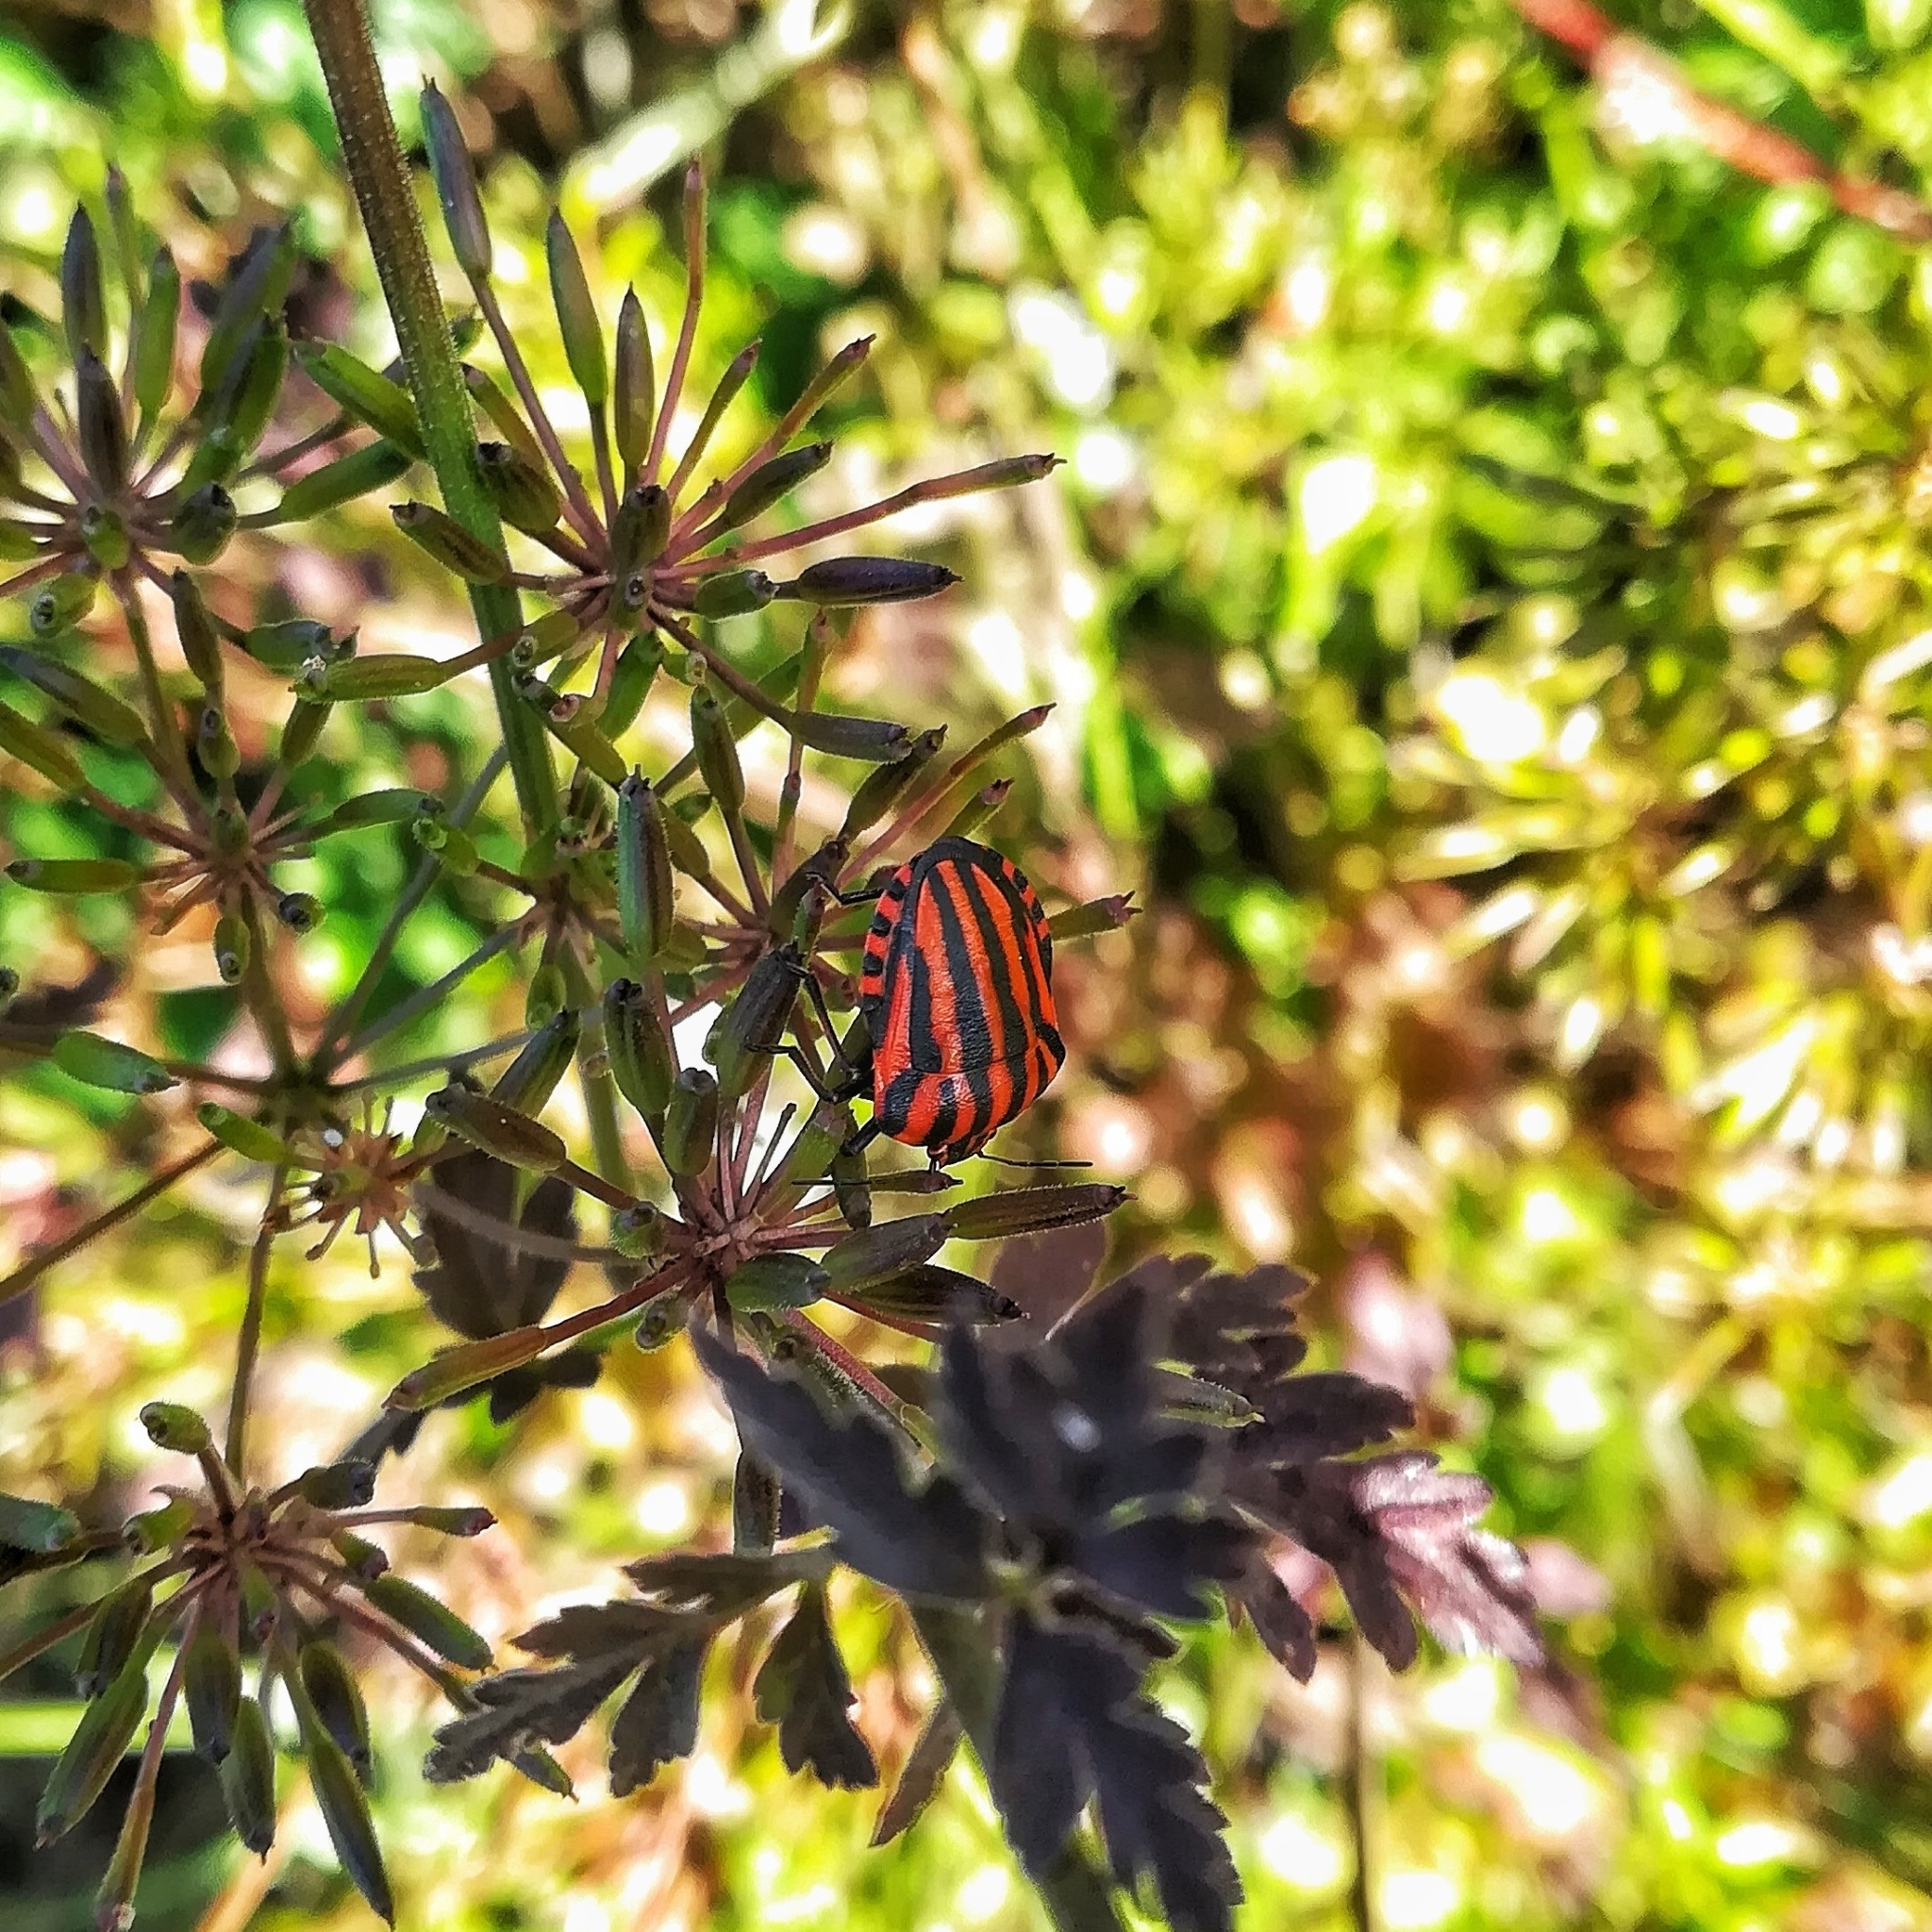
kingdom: Animalia
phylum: Arthropoda
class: Insecta
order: Hemiptera
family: Pentatomidae
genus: Graphosoma
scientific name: Graphosoma italicum
